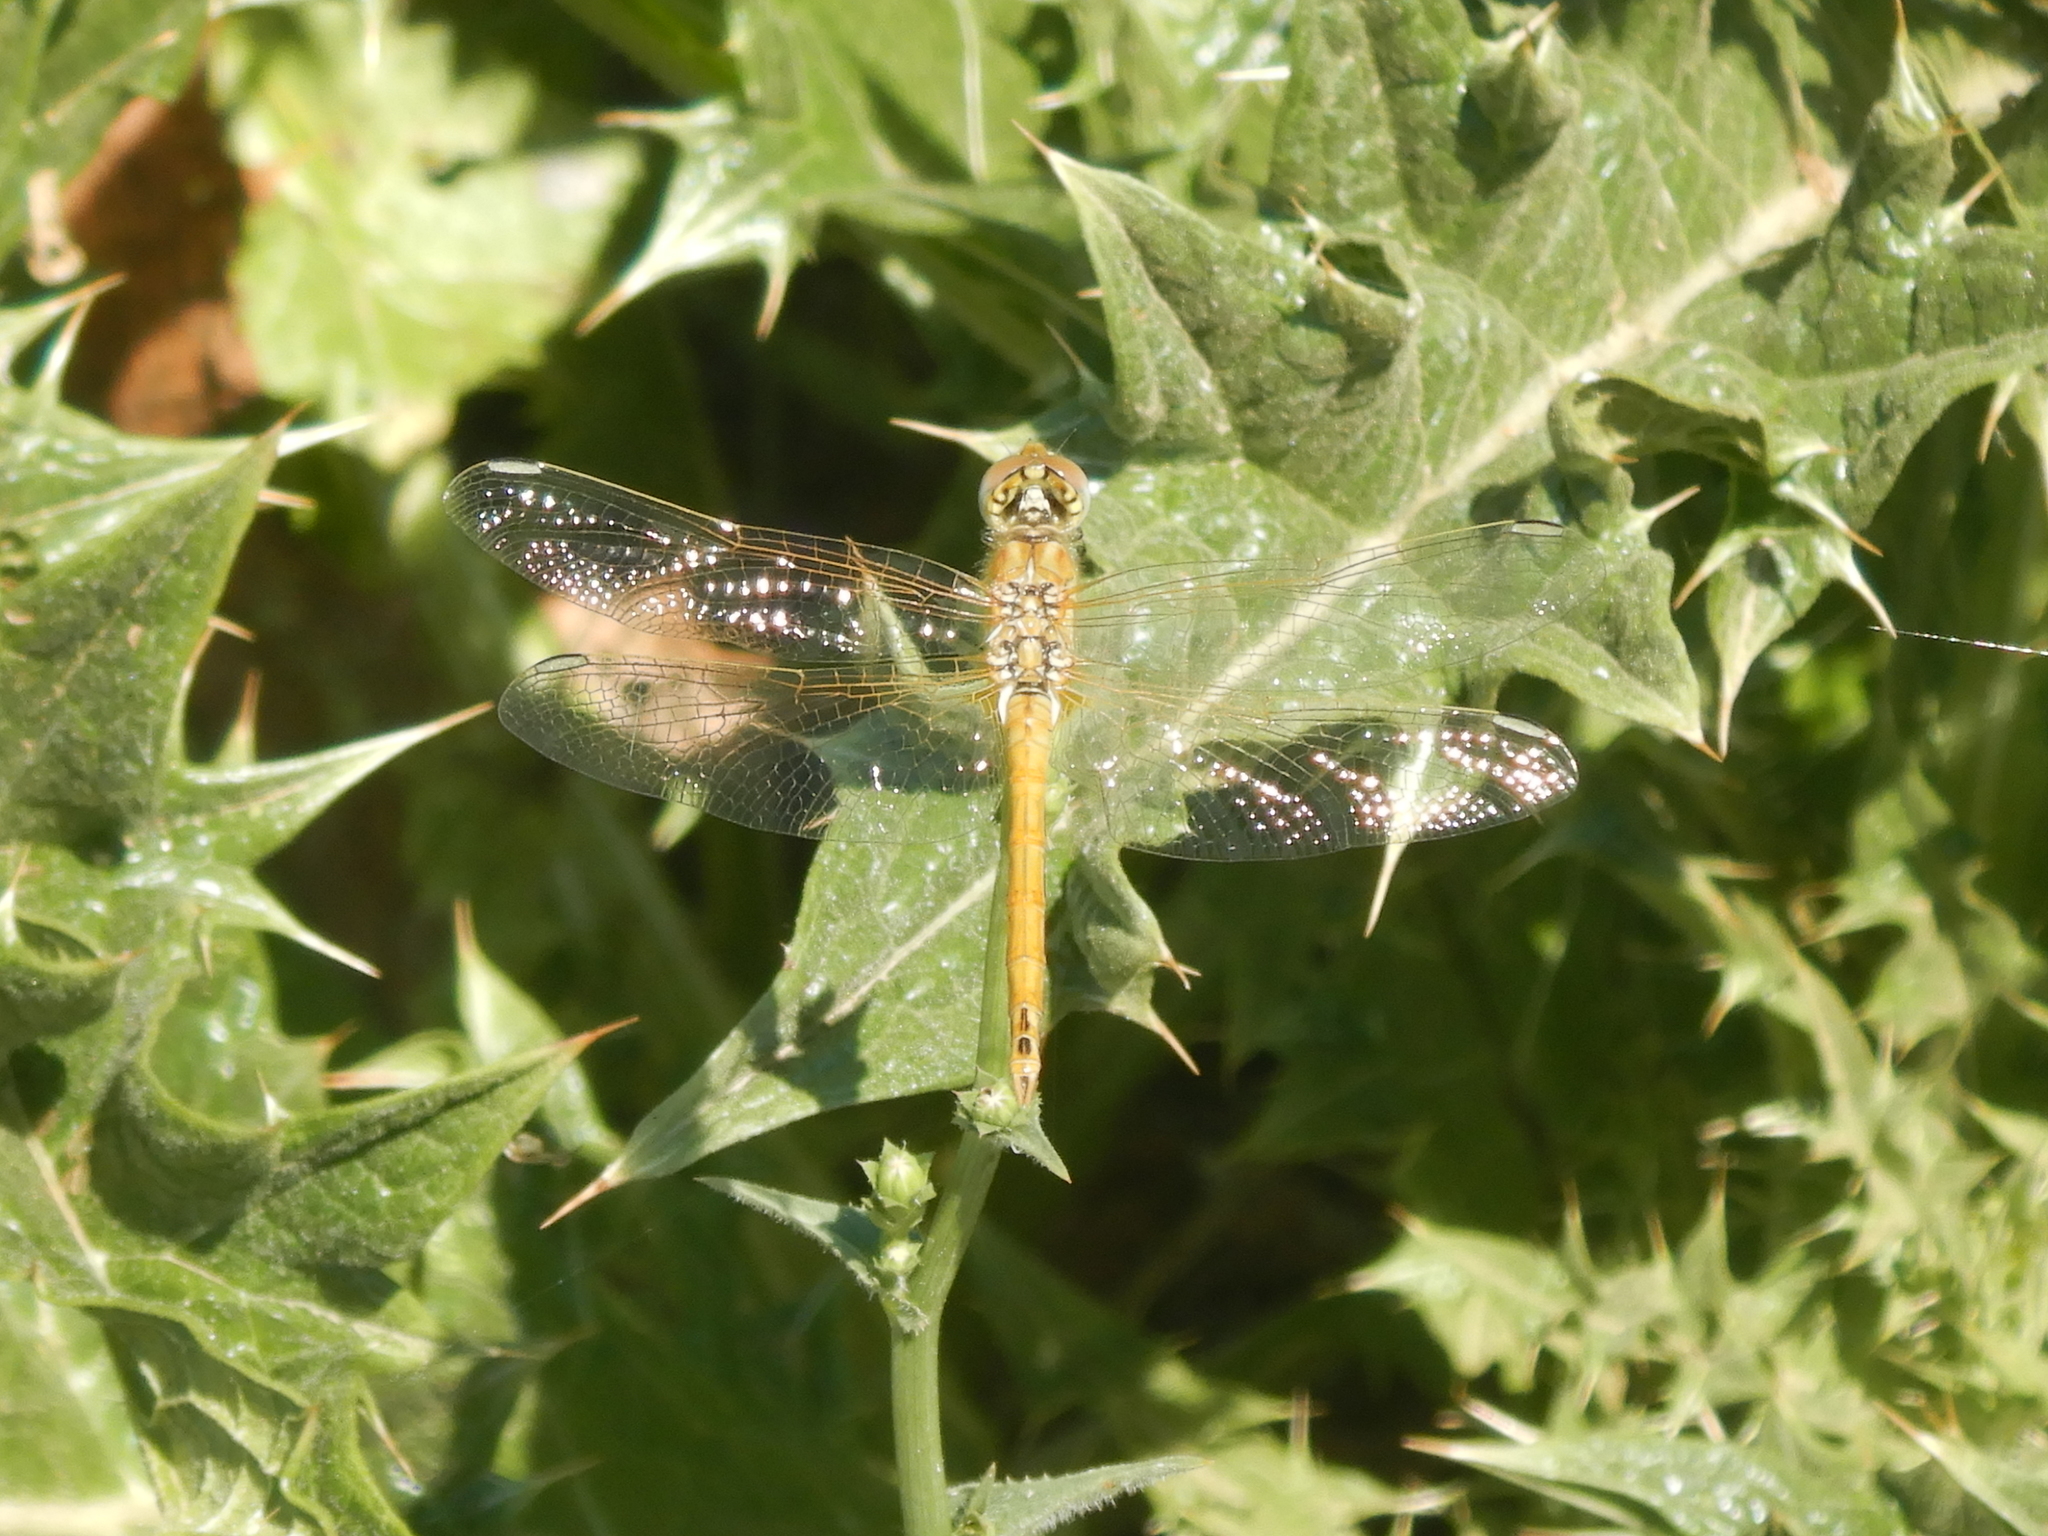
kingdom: Animalia
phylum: Arthropoda
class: Insecta
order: Odonata
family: Libellulidae
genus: Sympetrum
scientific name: Sympetrum fonscolombii
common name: Red-veined darter
